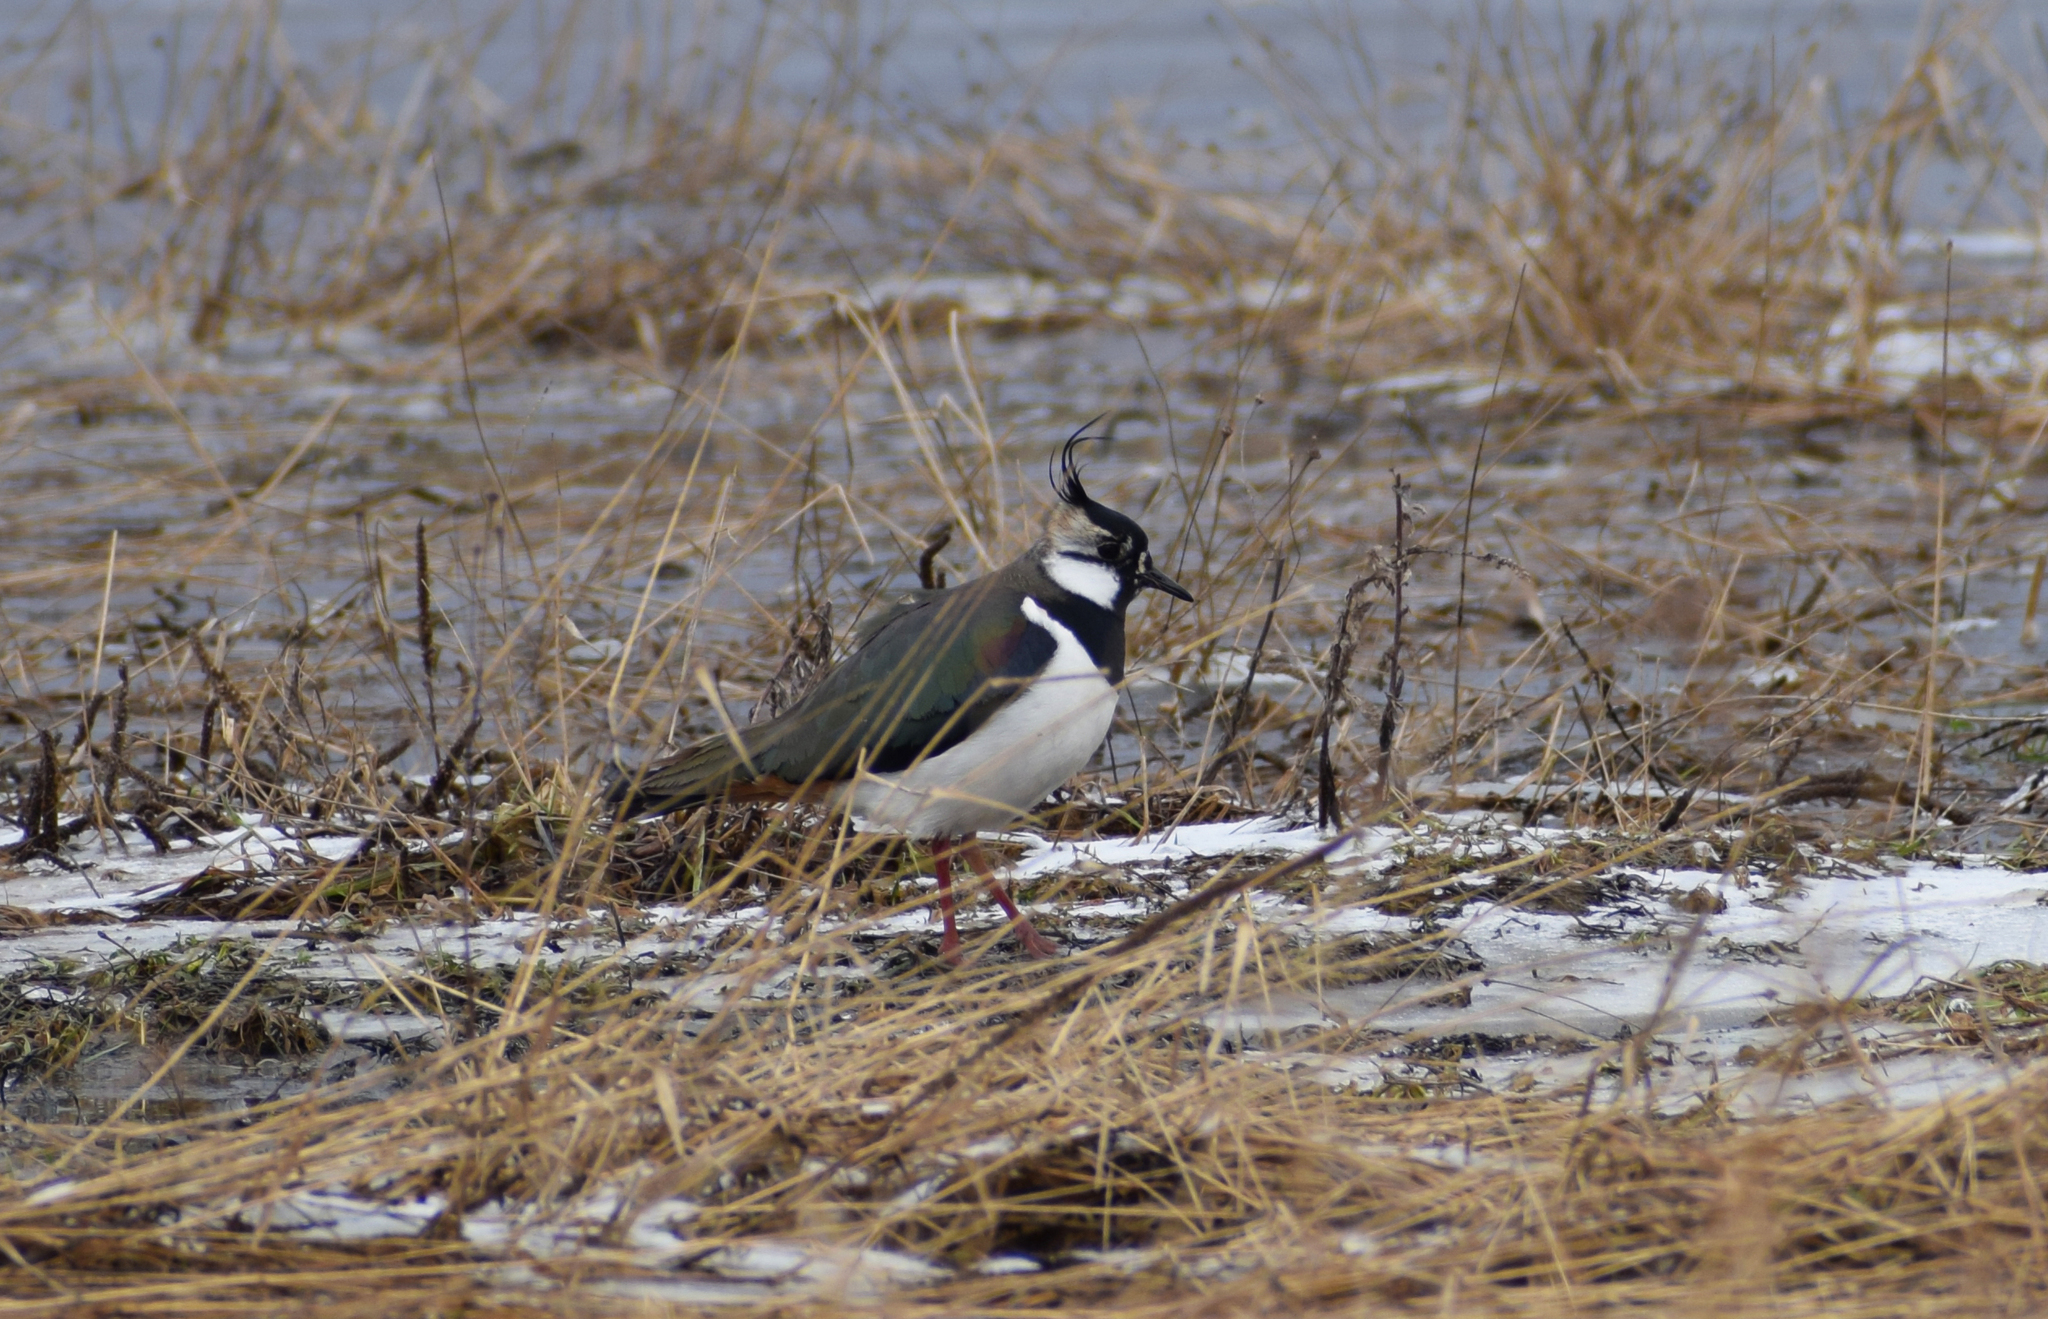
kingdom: Animalia
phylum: Chordata
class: Aves
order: Charadriiformes
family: Charadriidae
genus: Vanellus
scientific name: Vanellus vanellus
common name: Northern lapwing
